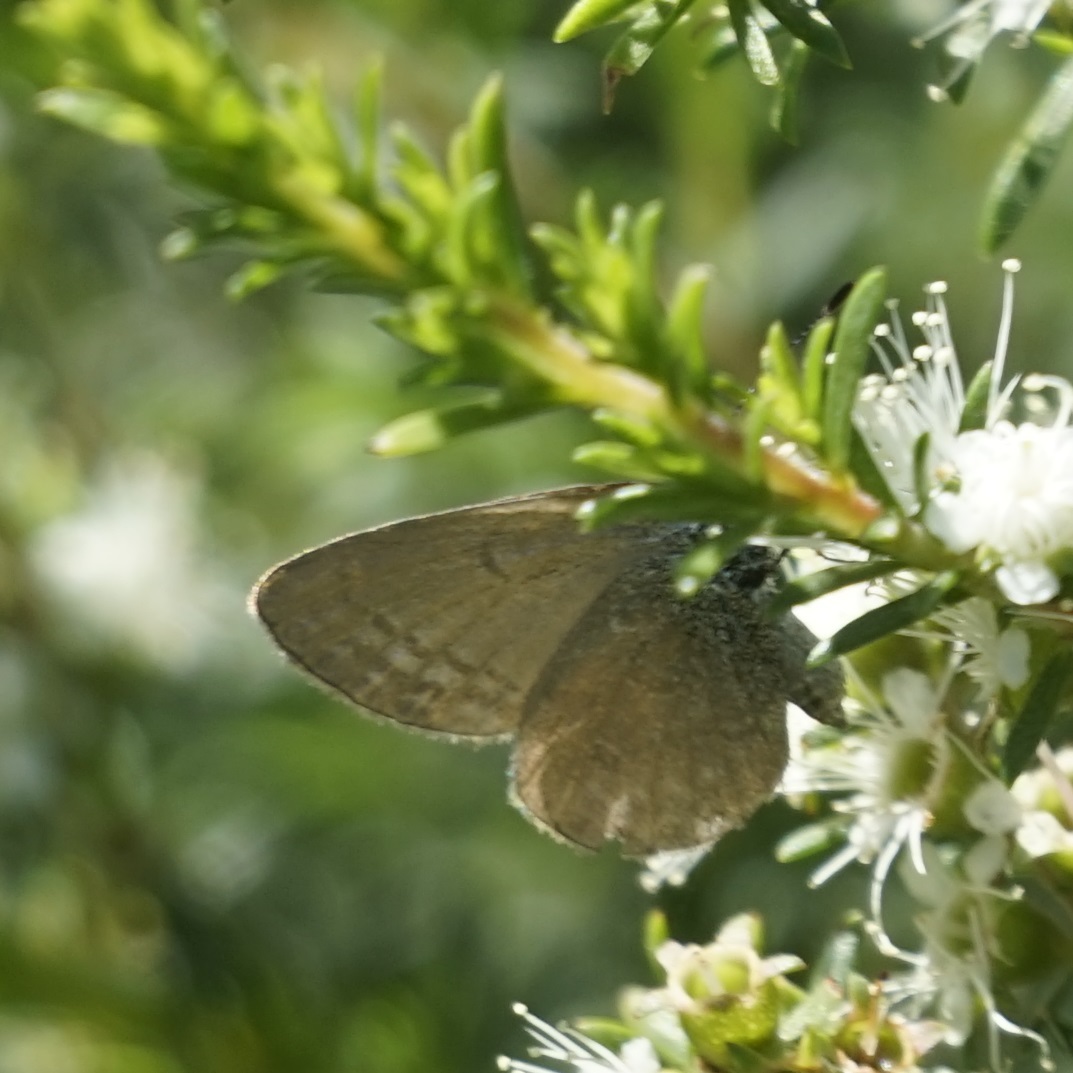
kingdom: Animalia
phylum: Arthropoda
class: Insecta
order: Lepidoptera
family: Lycaenidae
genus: Zizina
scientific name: Zizina labradus
